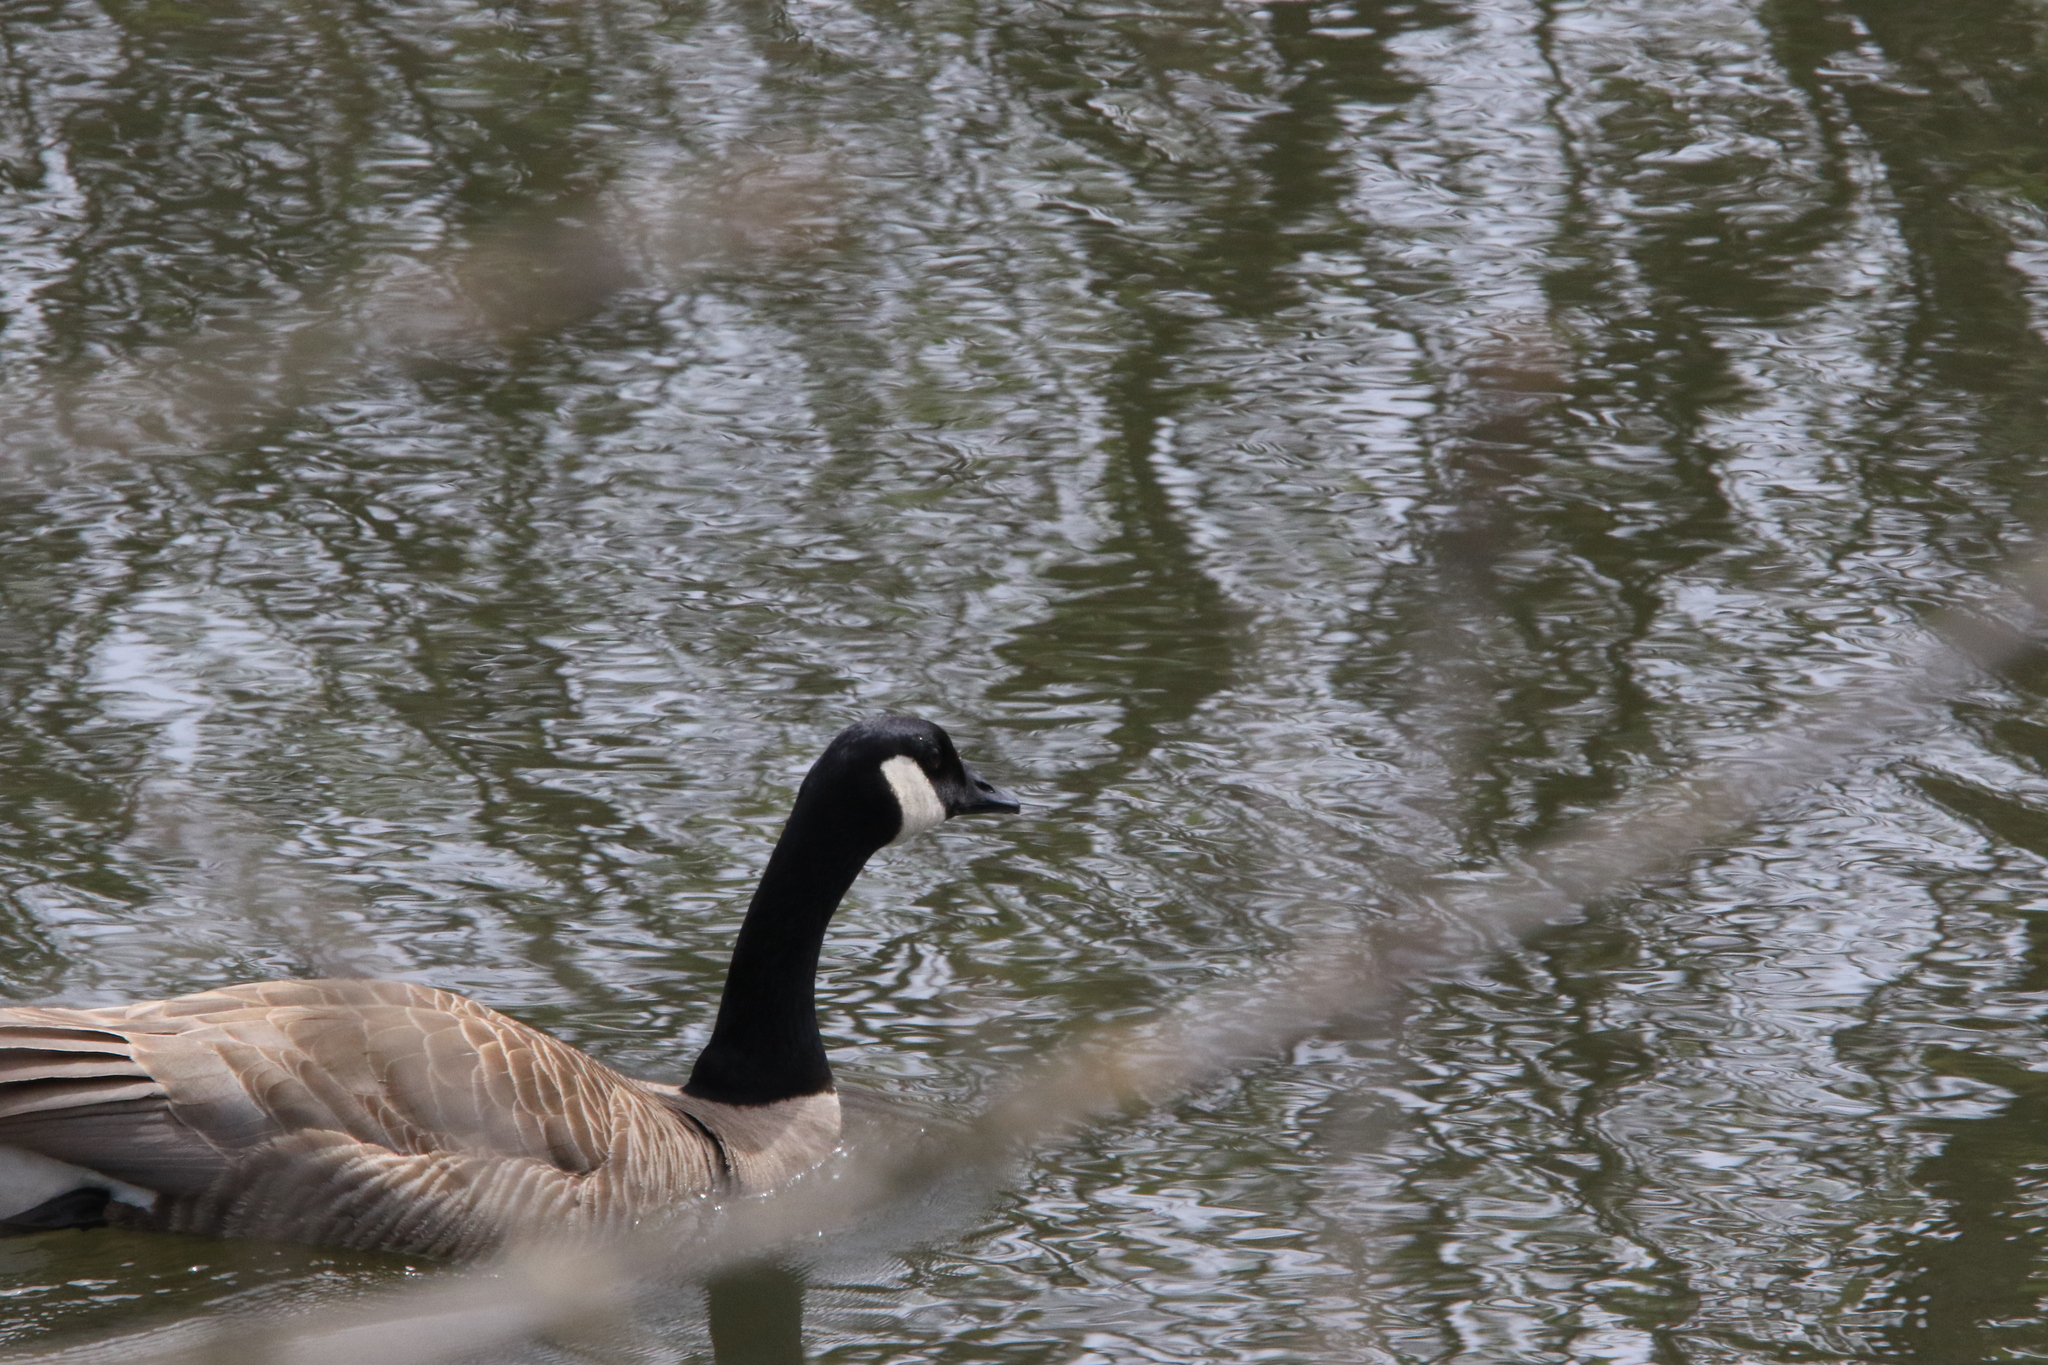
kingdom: Animalia
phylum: Chordata
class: Aves
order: Anseriformes
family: Anatidae
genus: Branta
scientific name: Branta canadensis
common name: Canada goose
